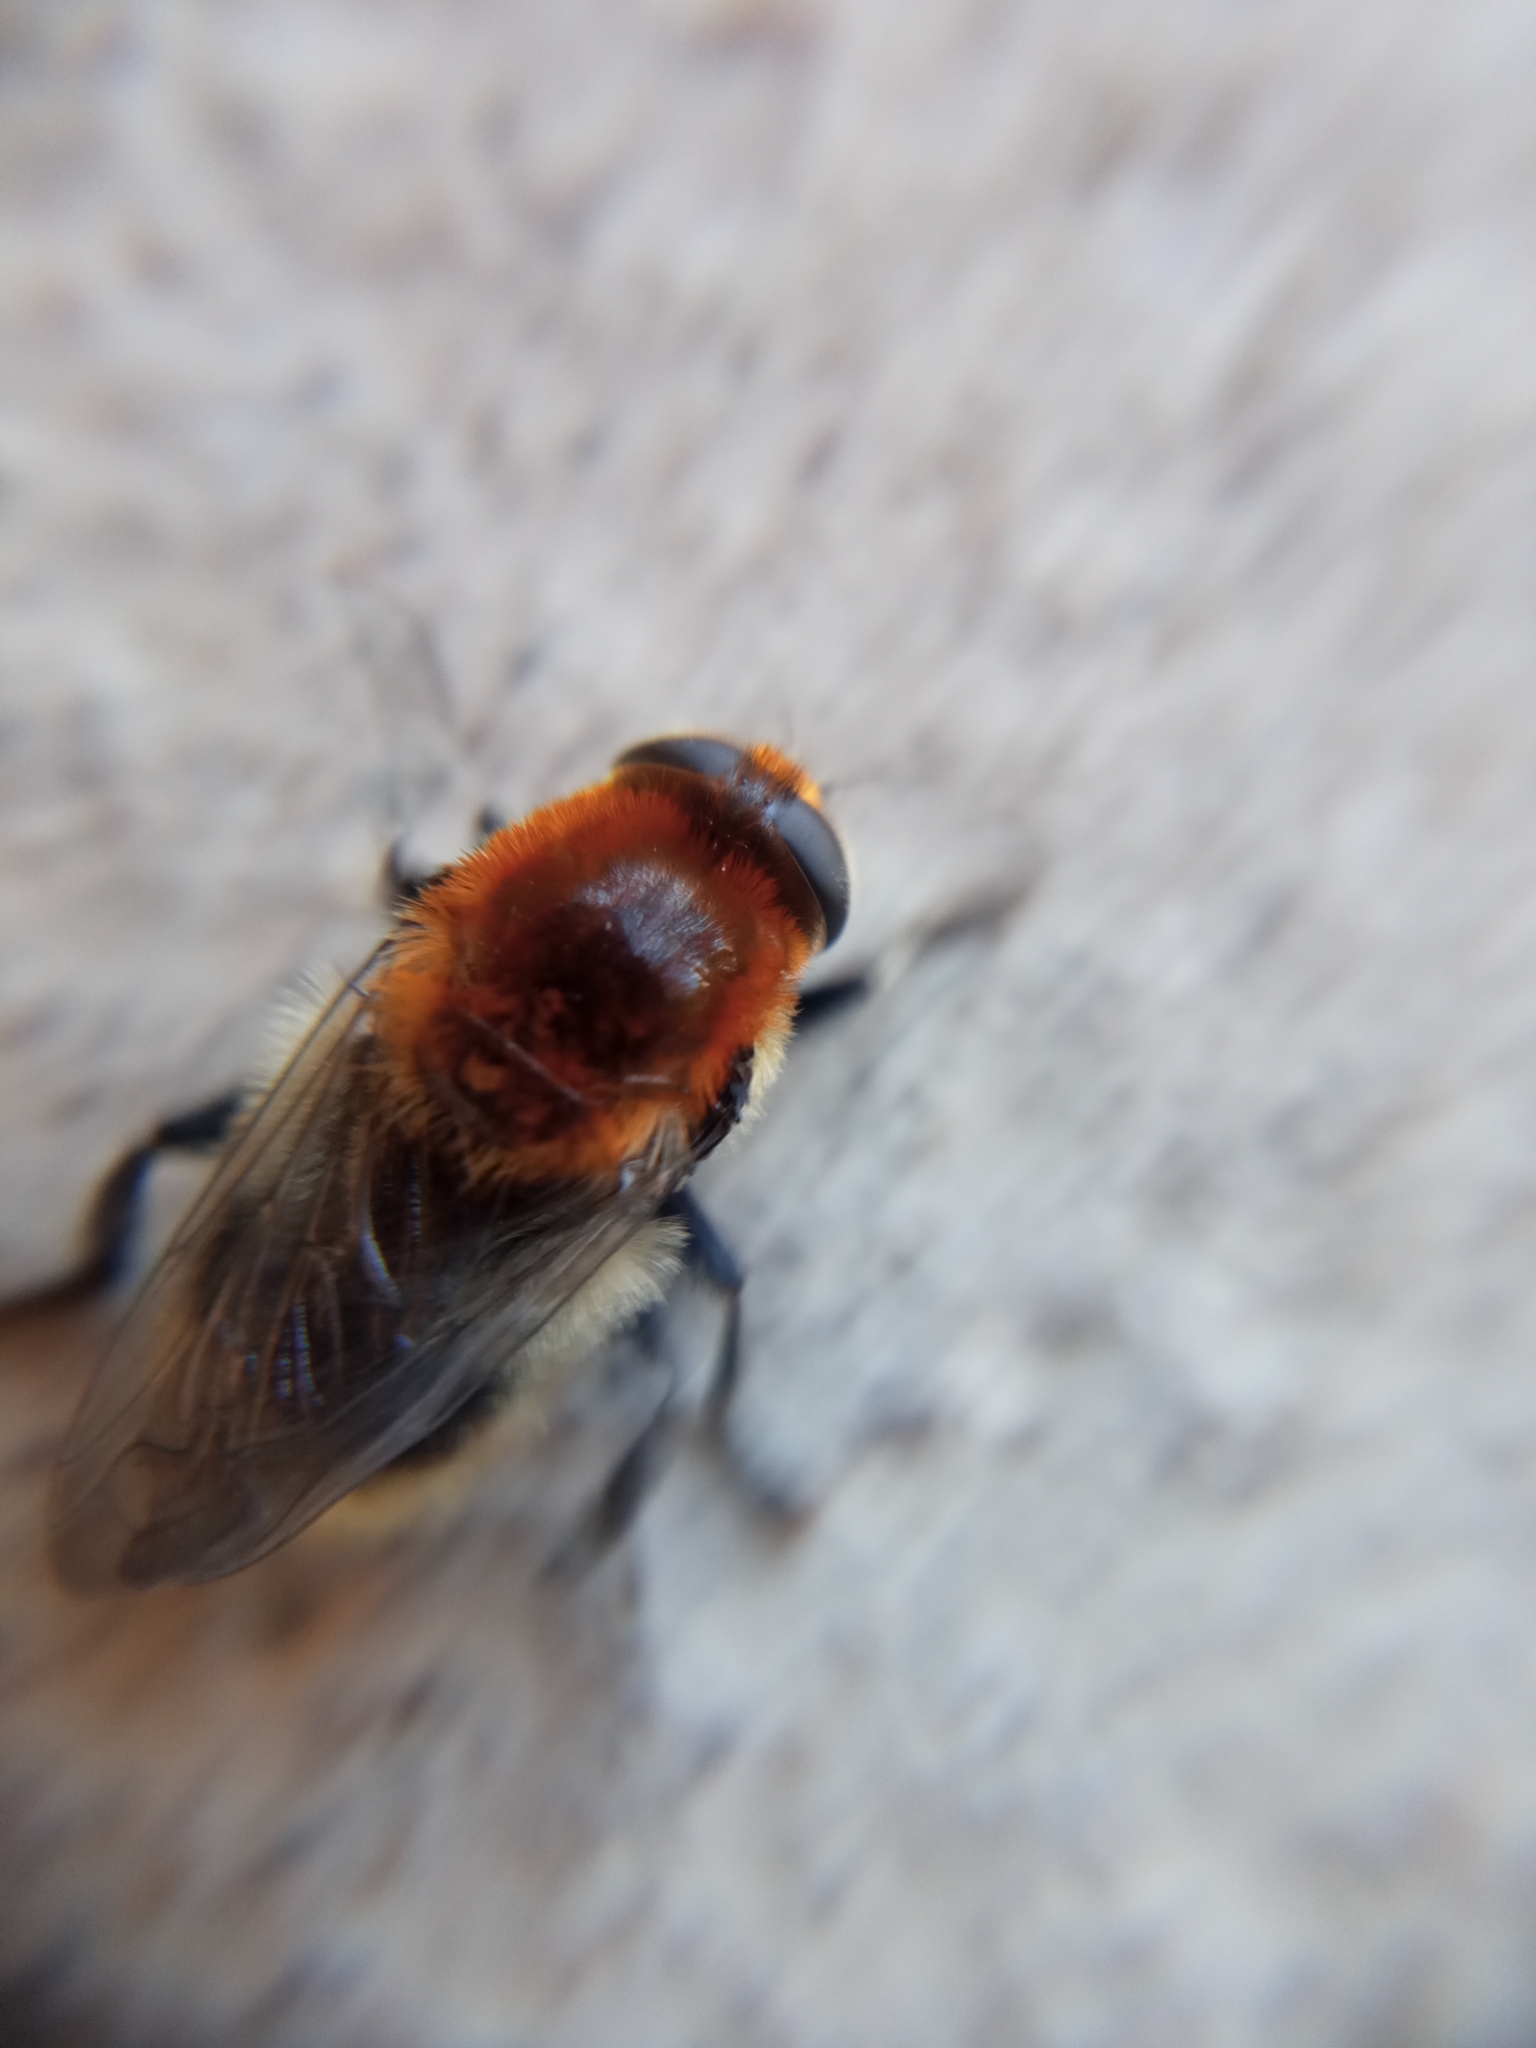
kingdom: Animalia
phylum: Arthropoda
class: Insecta
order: Diptera
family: Syrphidae
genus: Merodon
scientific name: Merodon equestris
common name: Greater bulb-fly
